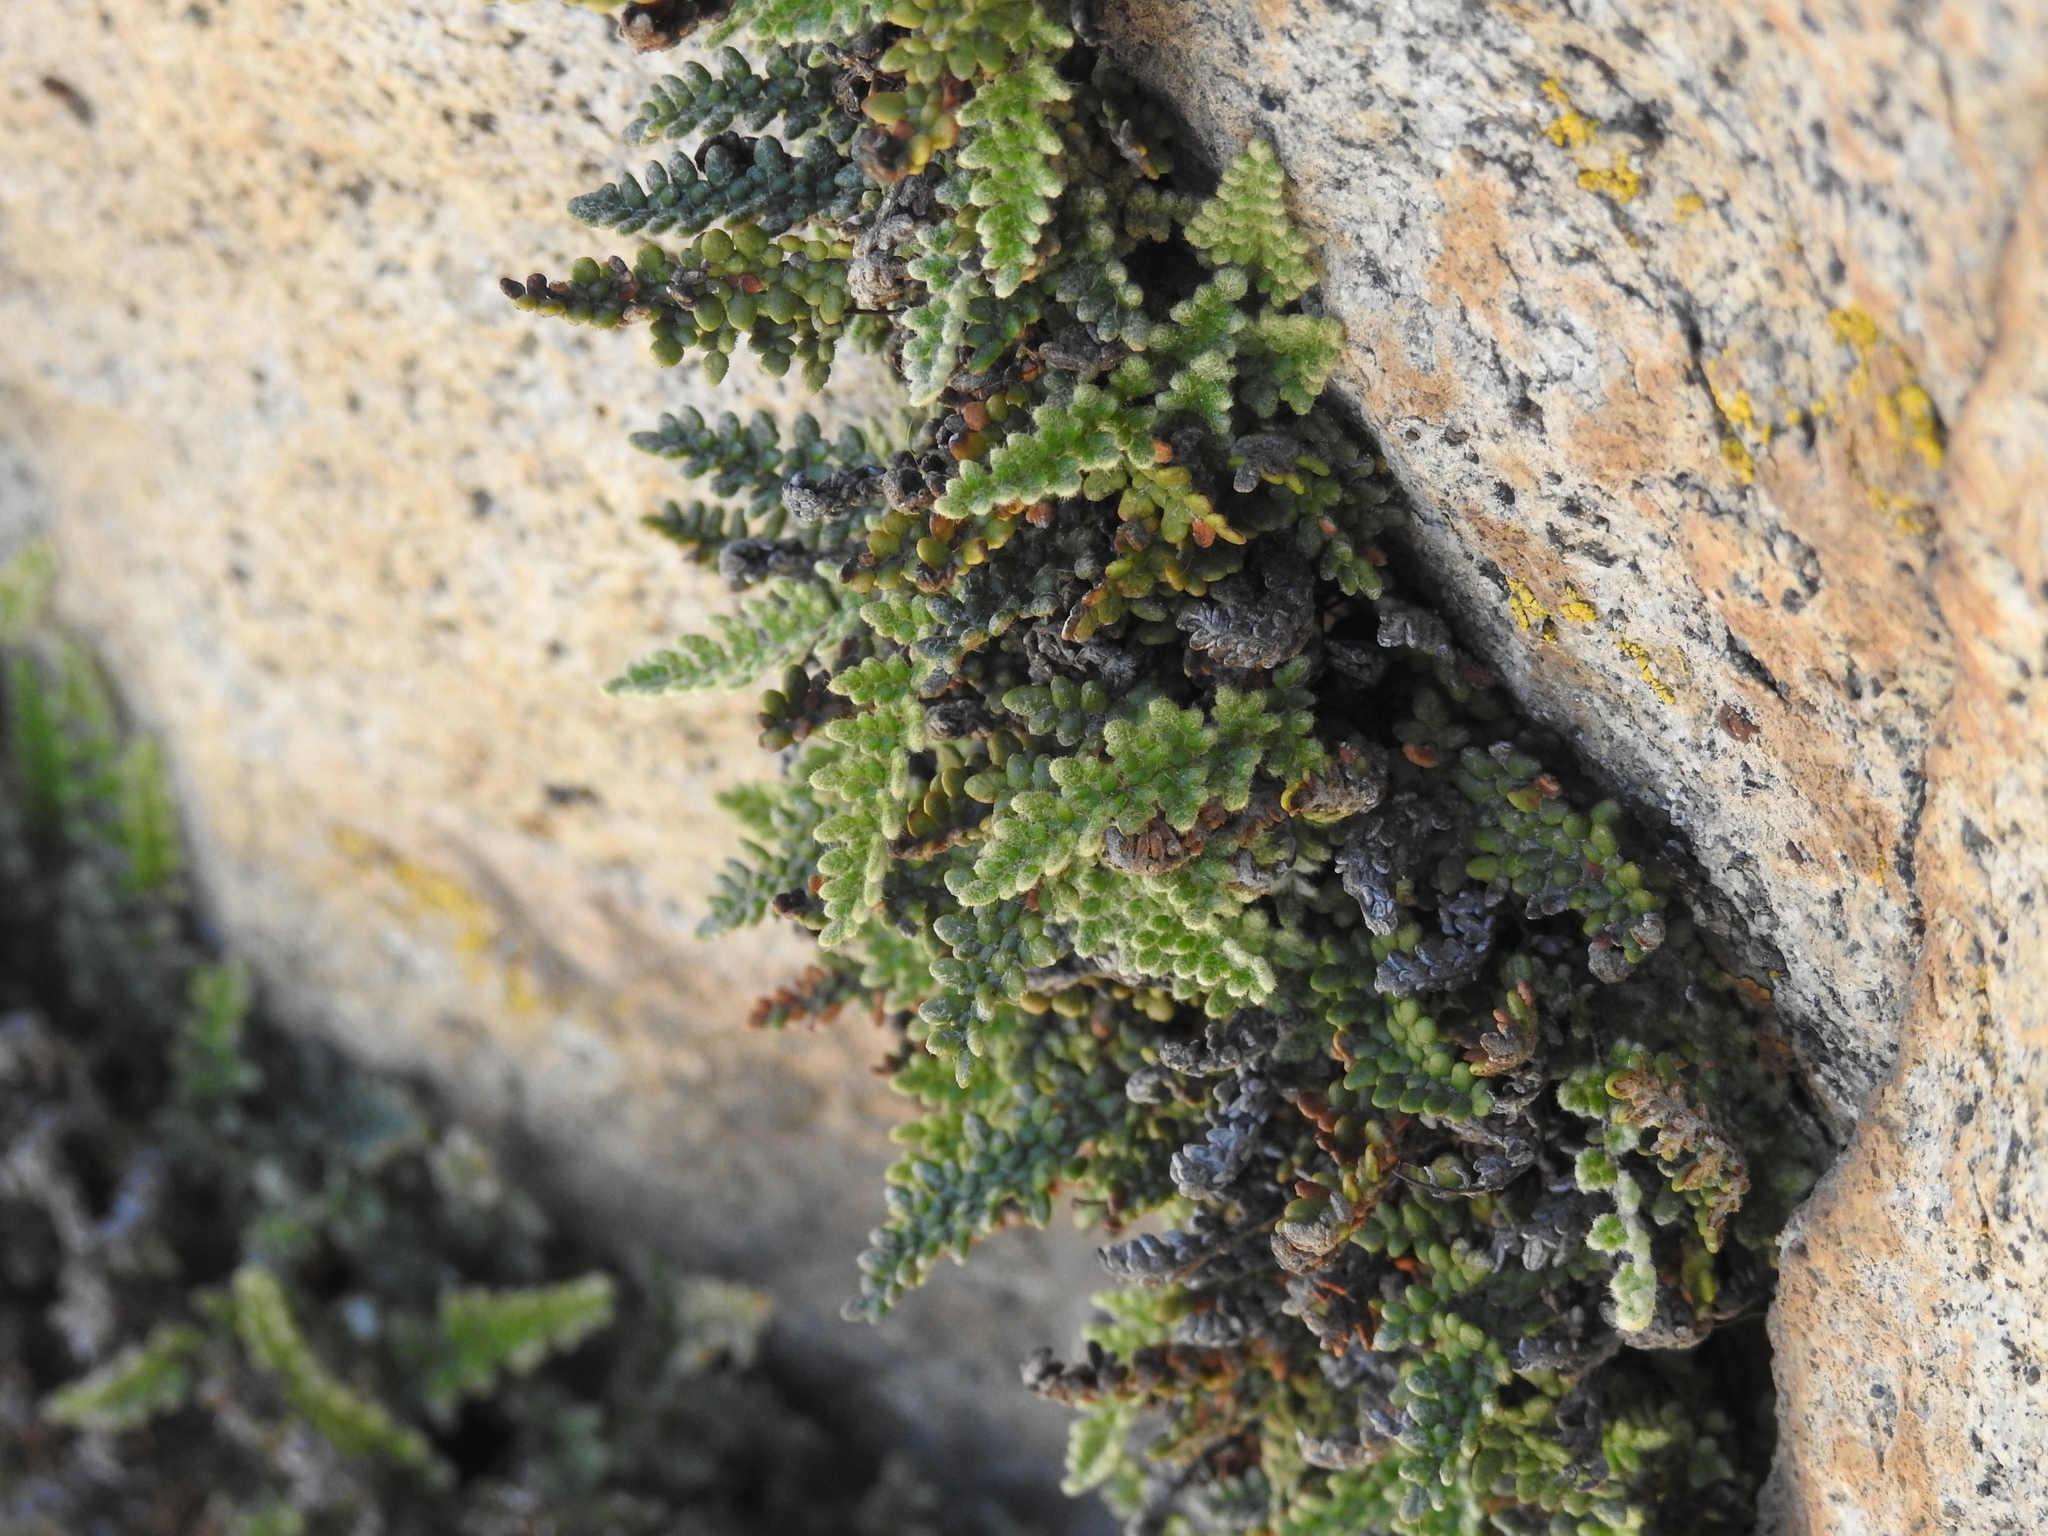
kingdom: Plantae
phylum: Tracheophyta
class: Polypodiopsida
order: Polypodiales
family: Pteridaceae
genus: Myriopteris
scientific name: Myriopteris gracillima
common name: Lace fern
